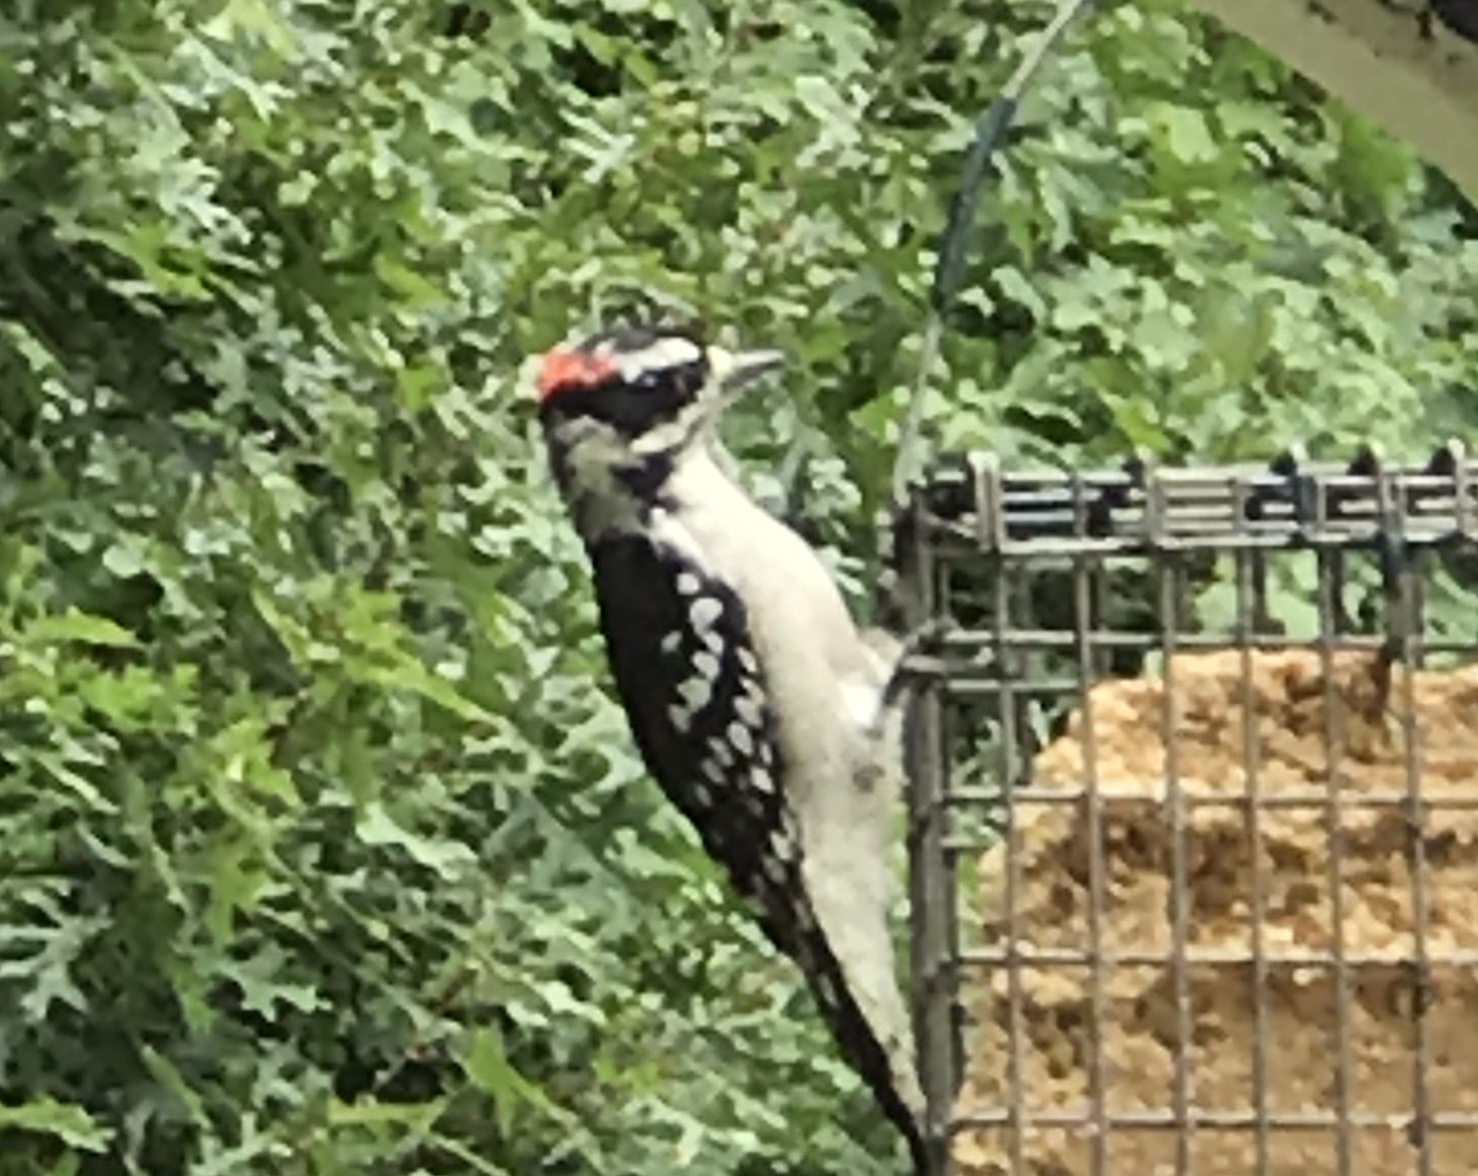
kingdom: Animalia
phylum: Chordata
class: Aves
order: Piciformes
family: Picidae
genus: Dryobates
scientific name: Dryobates pubescens
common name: Downy woodpecker
